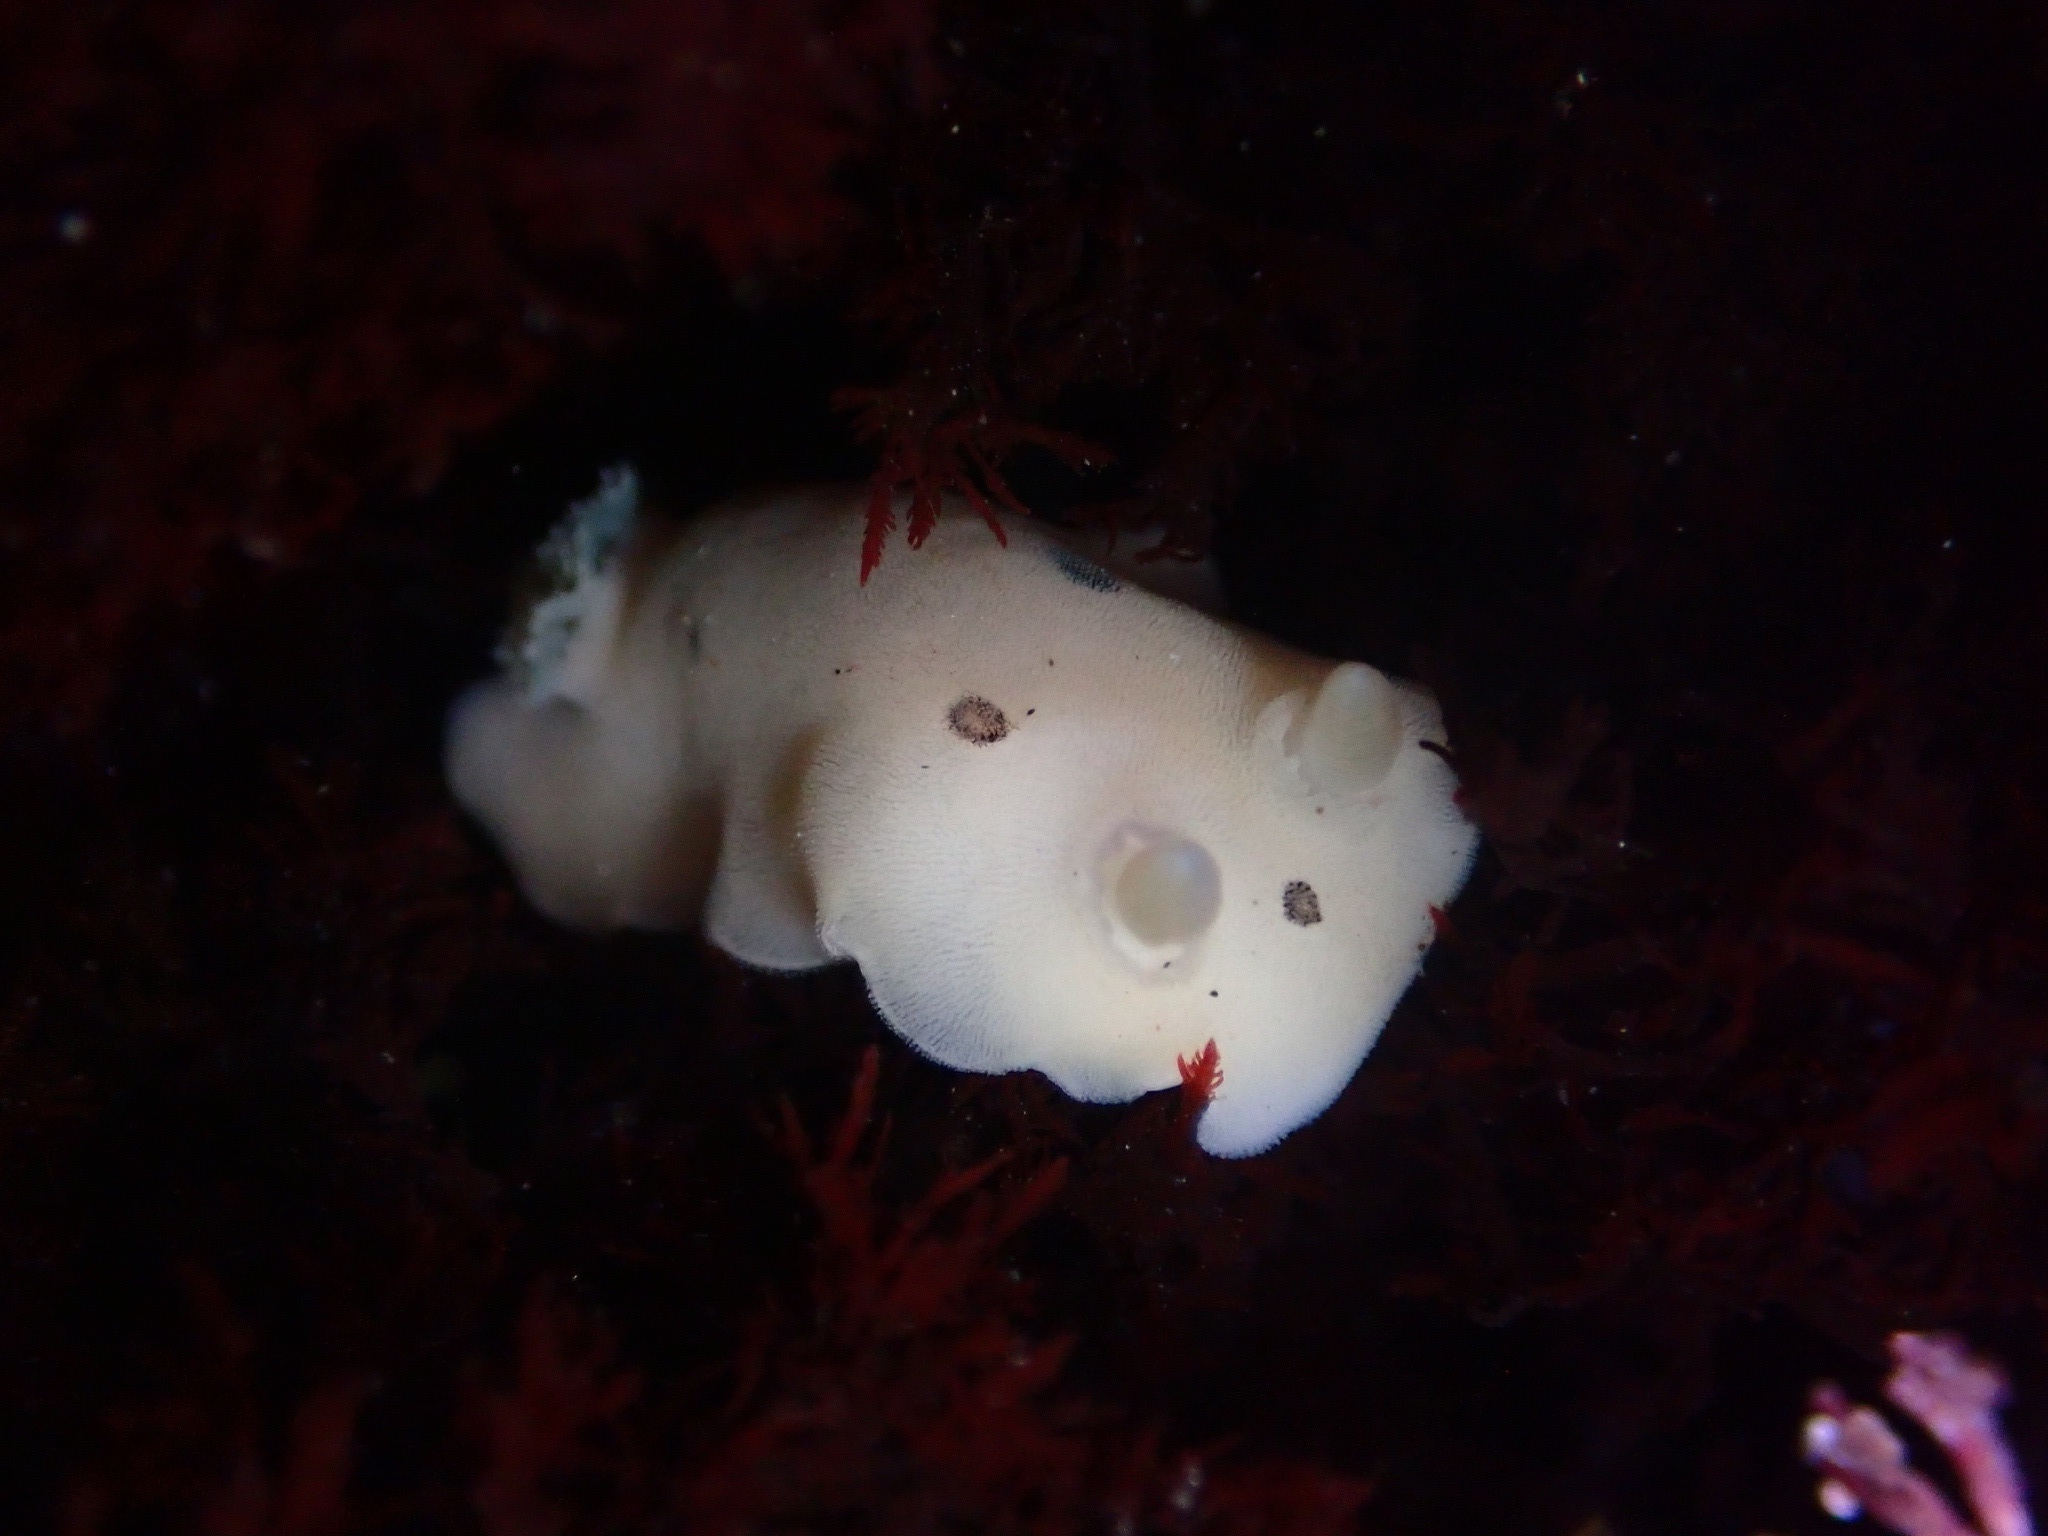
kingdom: Animalia
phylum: Mollusca
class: Gastropoda
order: Nudibranchia
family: Discodorididae
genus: Diaulula
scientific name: Diaulula sandiegensis
